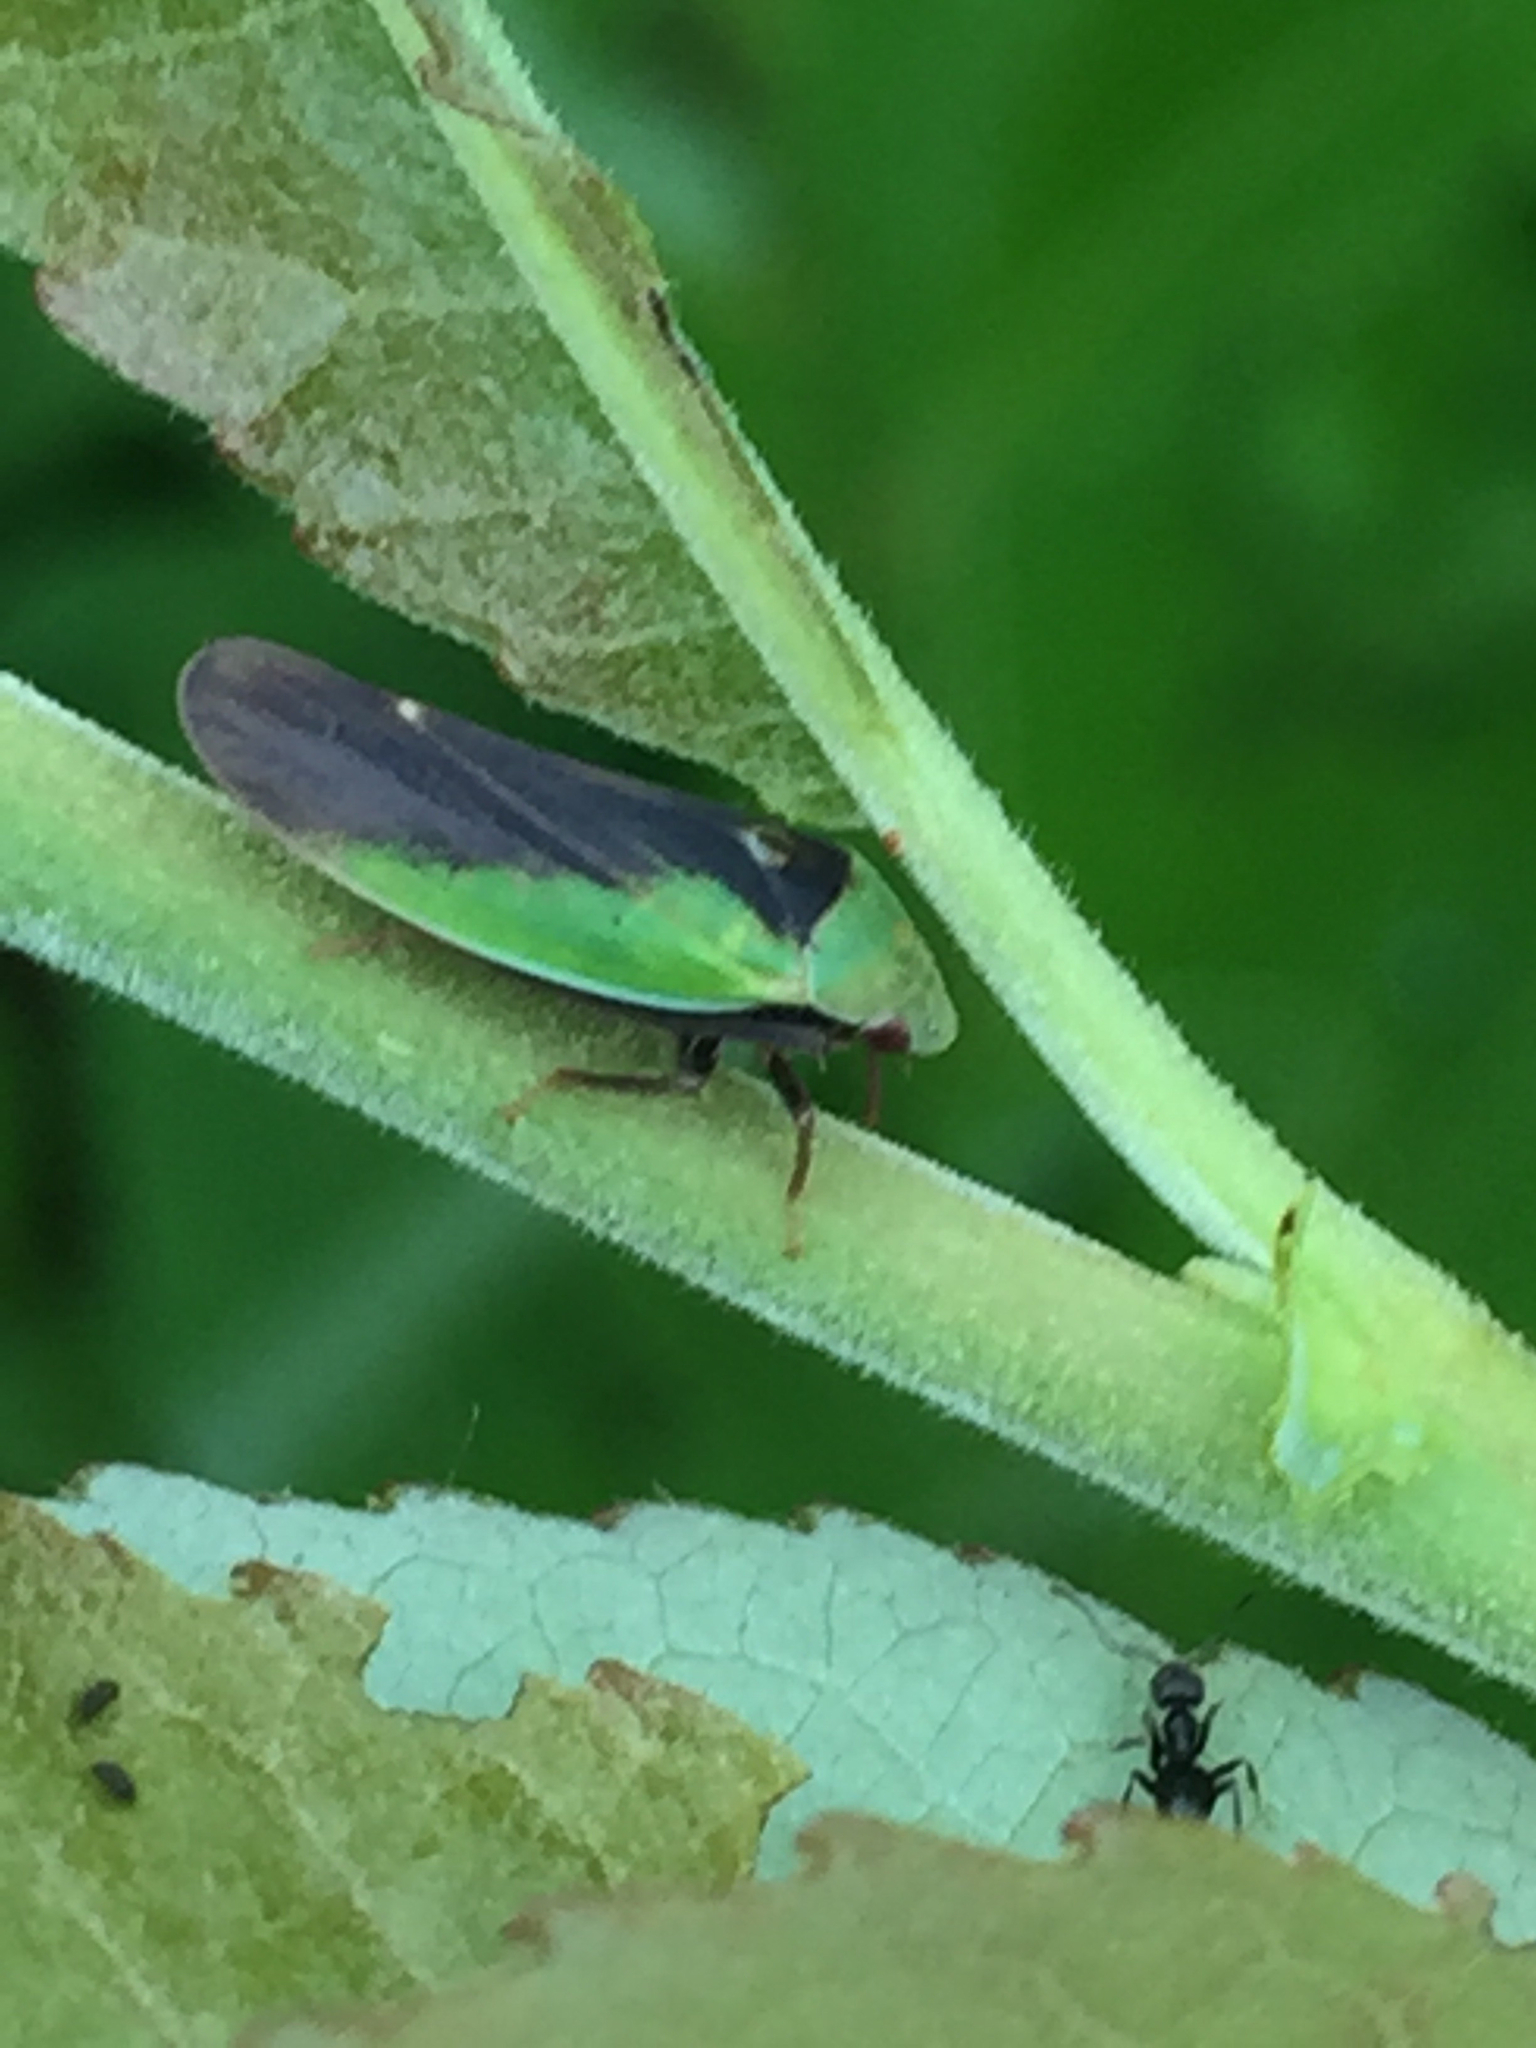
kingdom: Animalia
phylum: Arthropoda
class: Insecta
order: Hemiptera
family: Cicadellidae
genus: Ponana
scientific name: Ponana pectoralis
